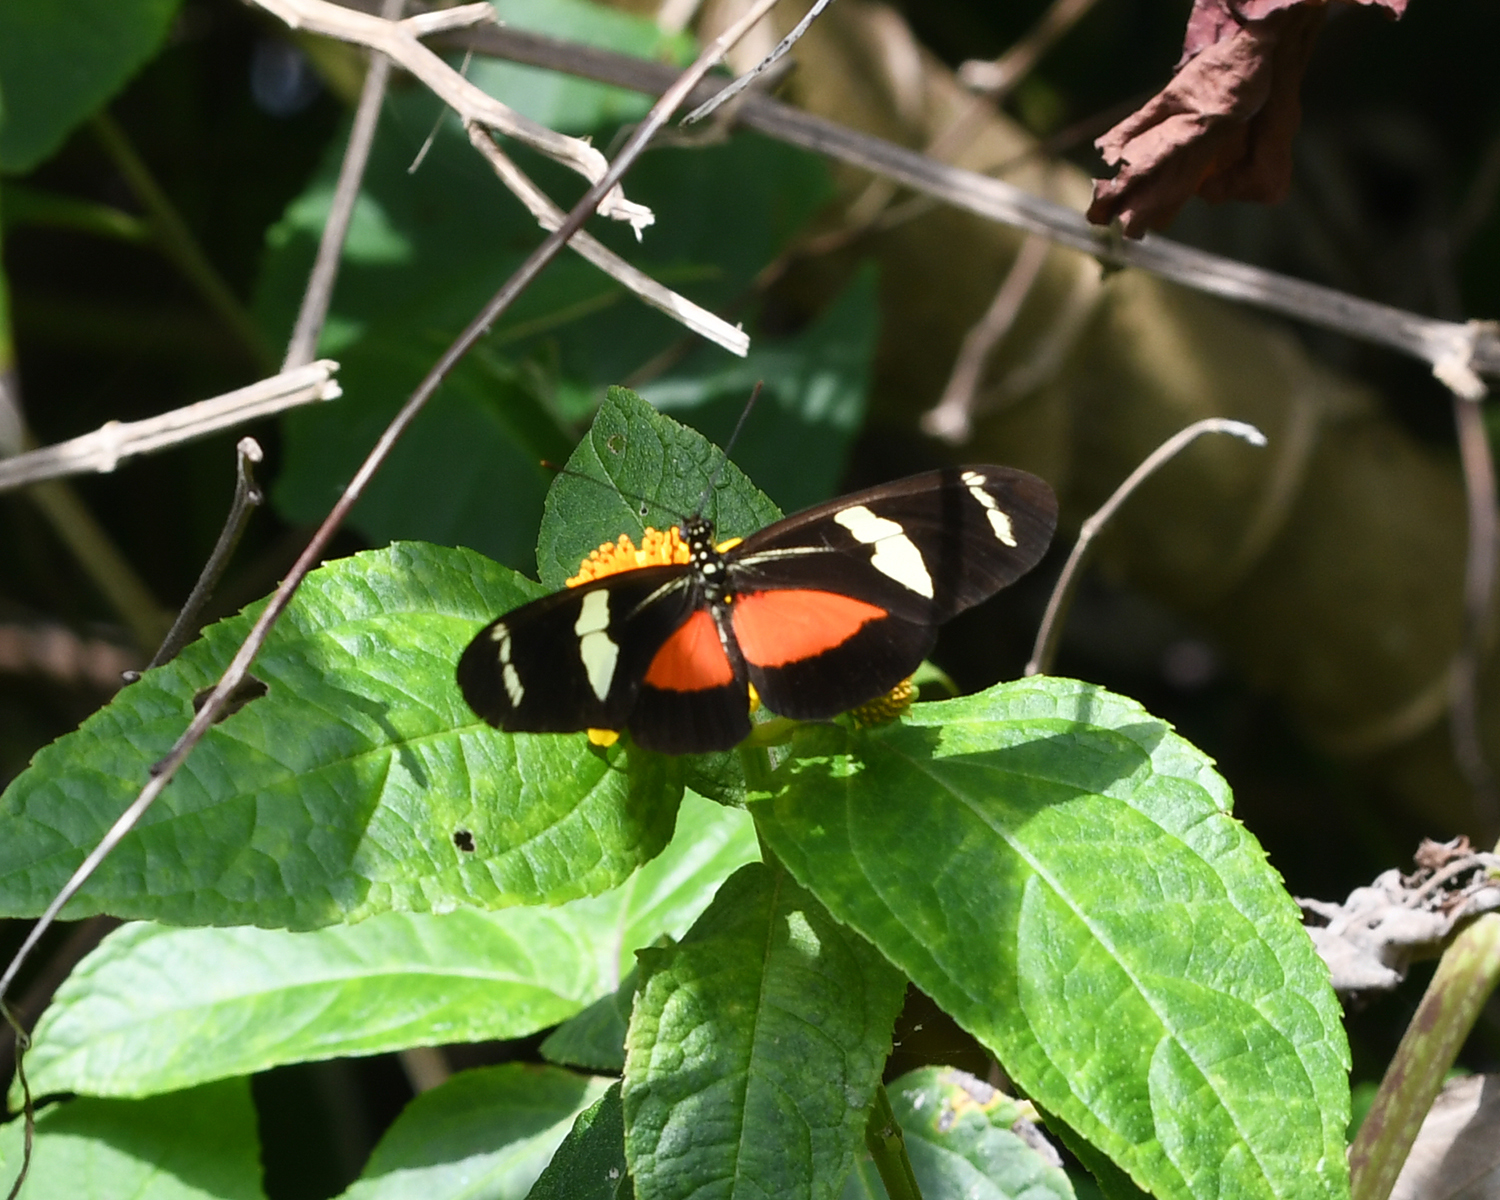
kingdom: Animalia
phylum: Arthropoda
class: Insecta
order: Lepidoptera
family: Nymphalidae
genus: Heliconius
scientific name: Heliconius ricini
